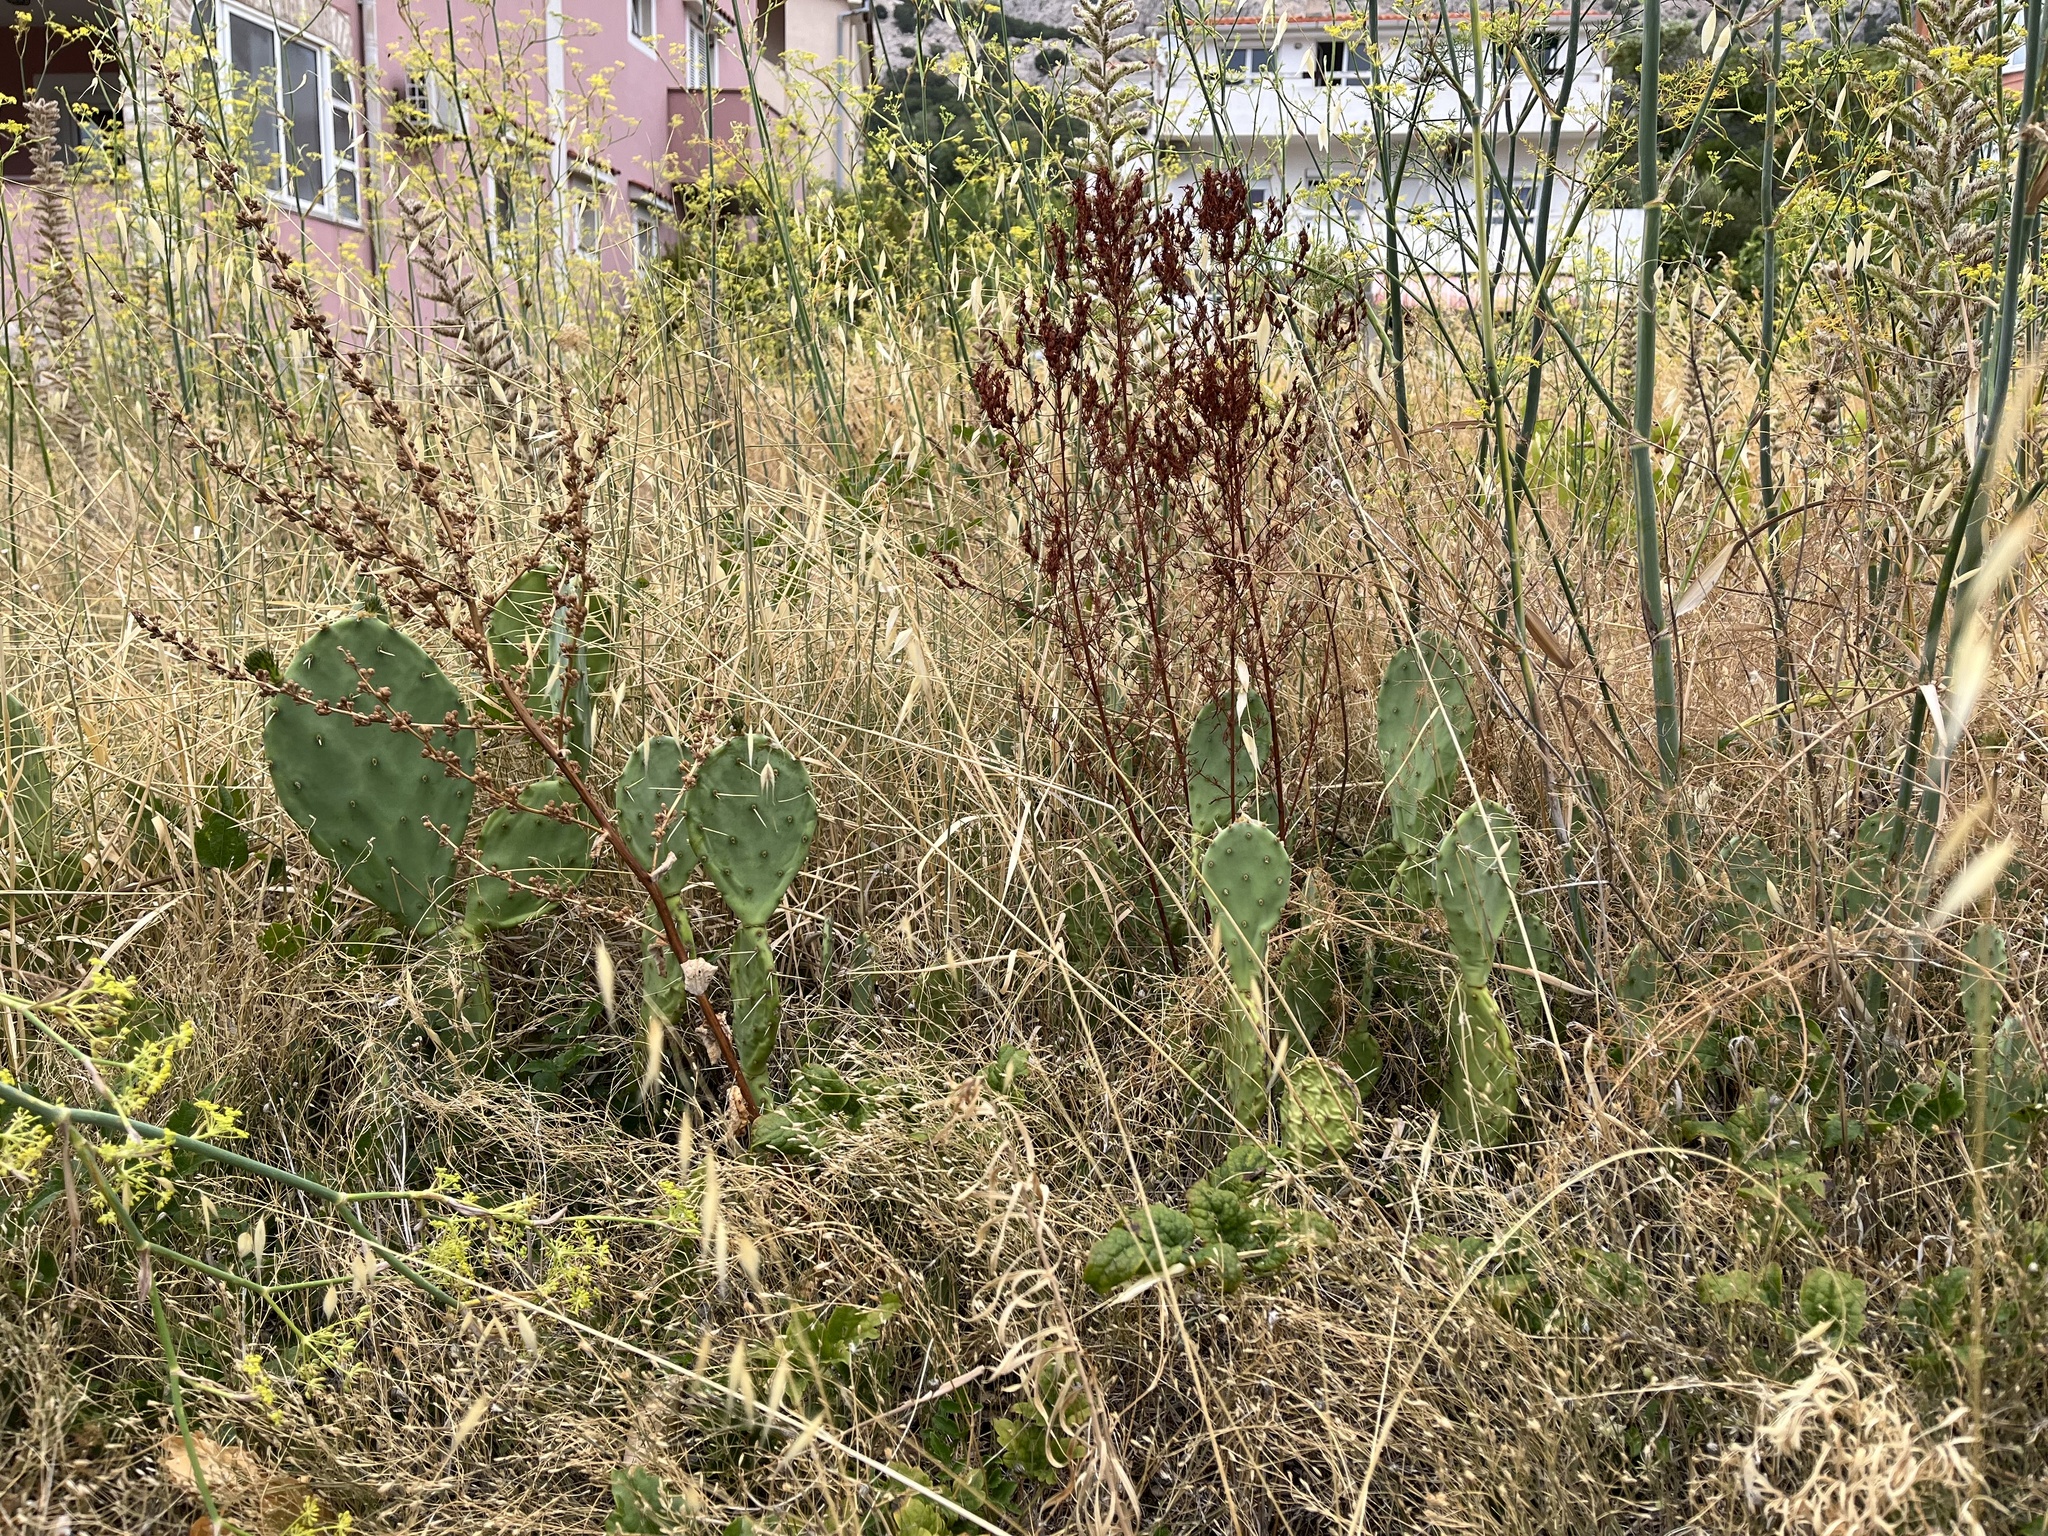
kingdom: Plantae
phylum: Tracheophyta
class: Magnoliopsida
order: Caryophyllales
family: Cactaceae
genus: Opuntia
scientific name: Opuntia anahuacensis
